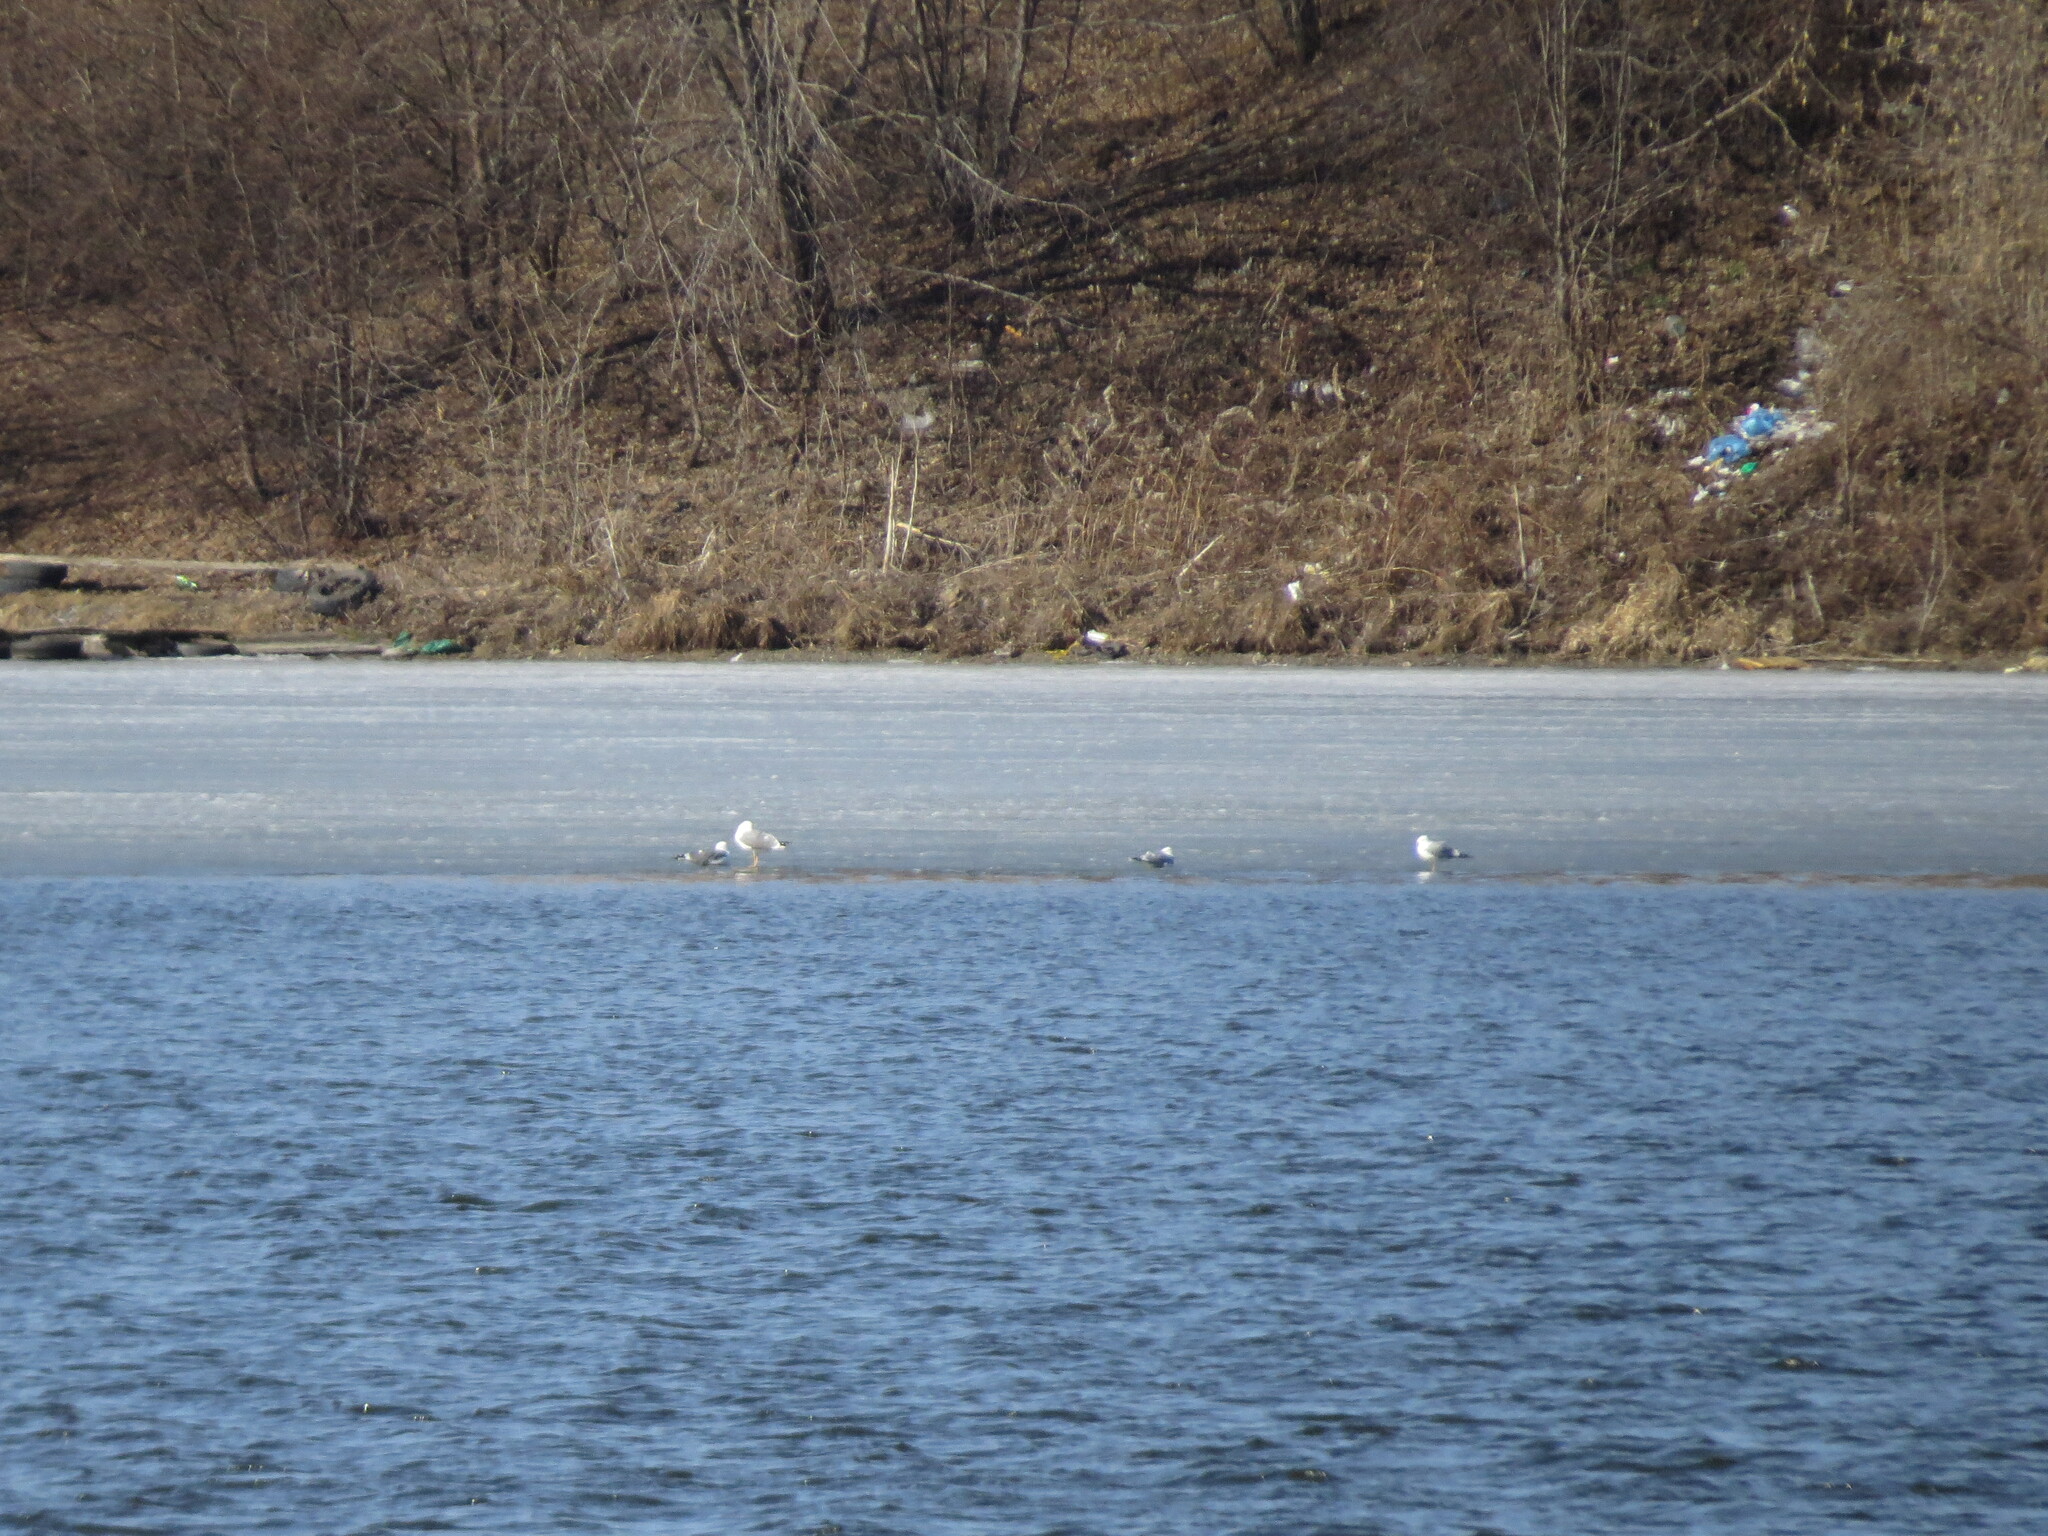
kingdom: Animalia
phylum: Chordata
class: Aves
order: Charadriiformes
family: Laridae
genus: Larus
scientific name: Larus fuscus
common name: Lesser black-backed gull
